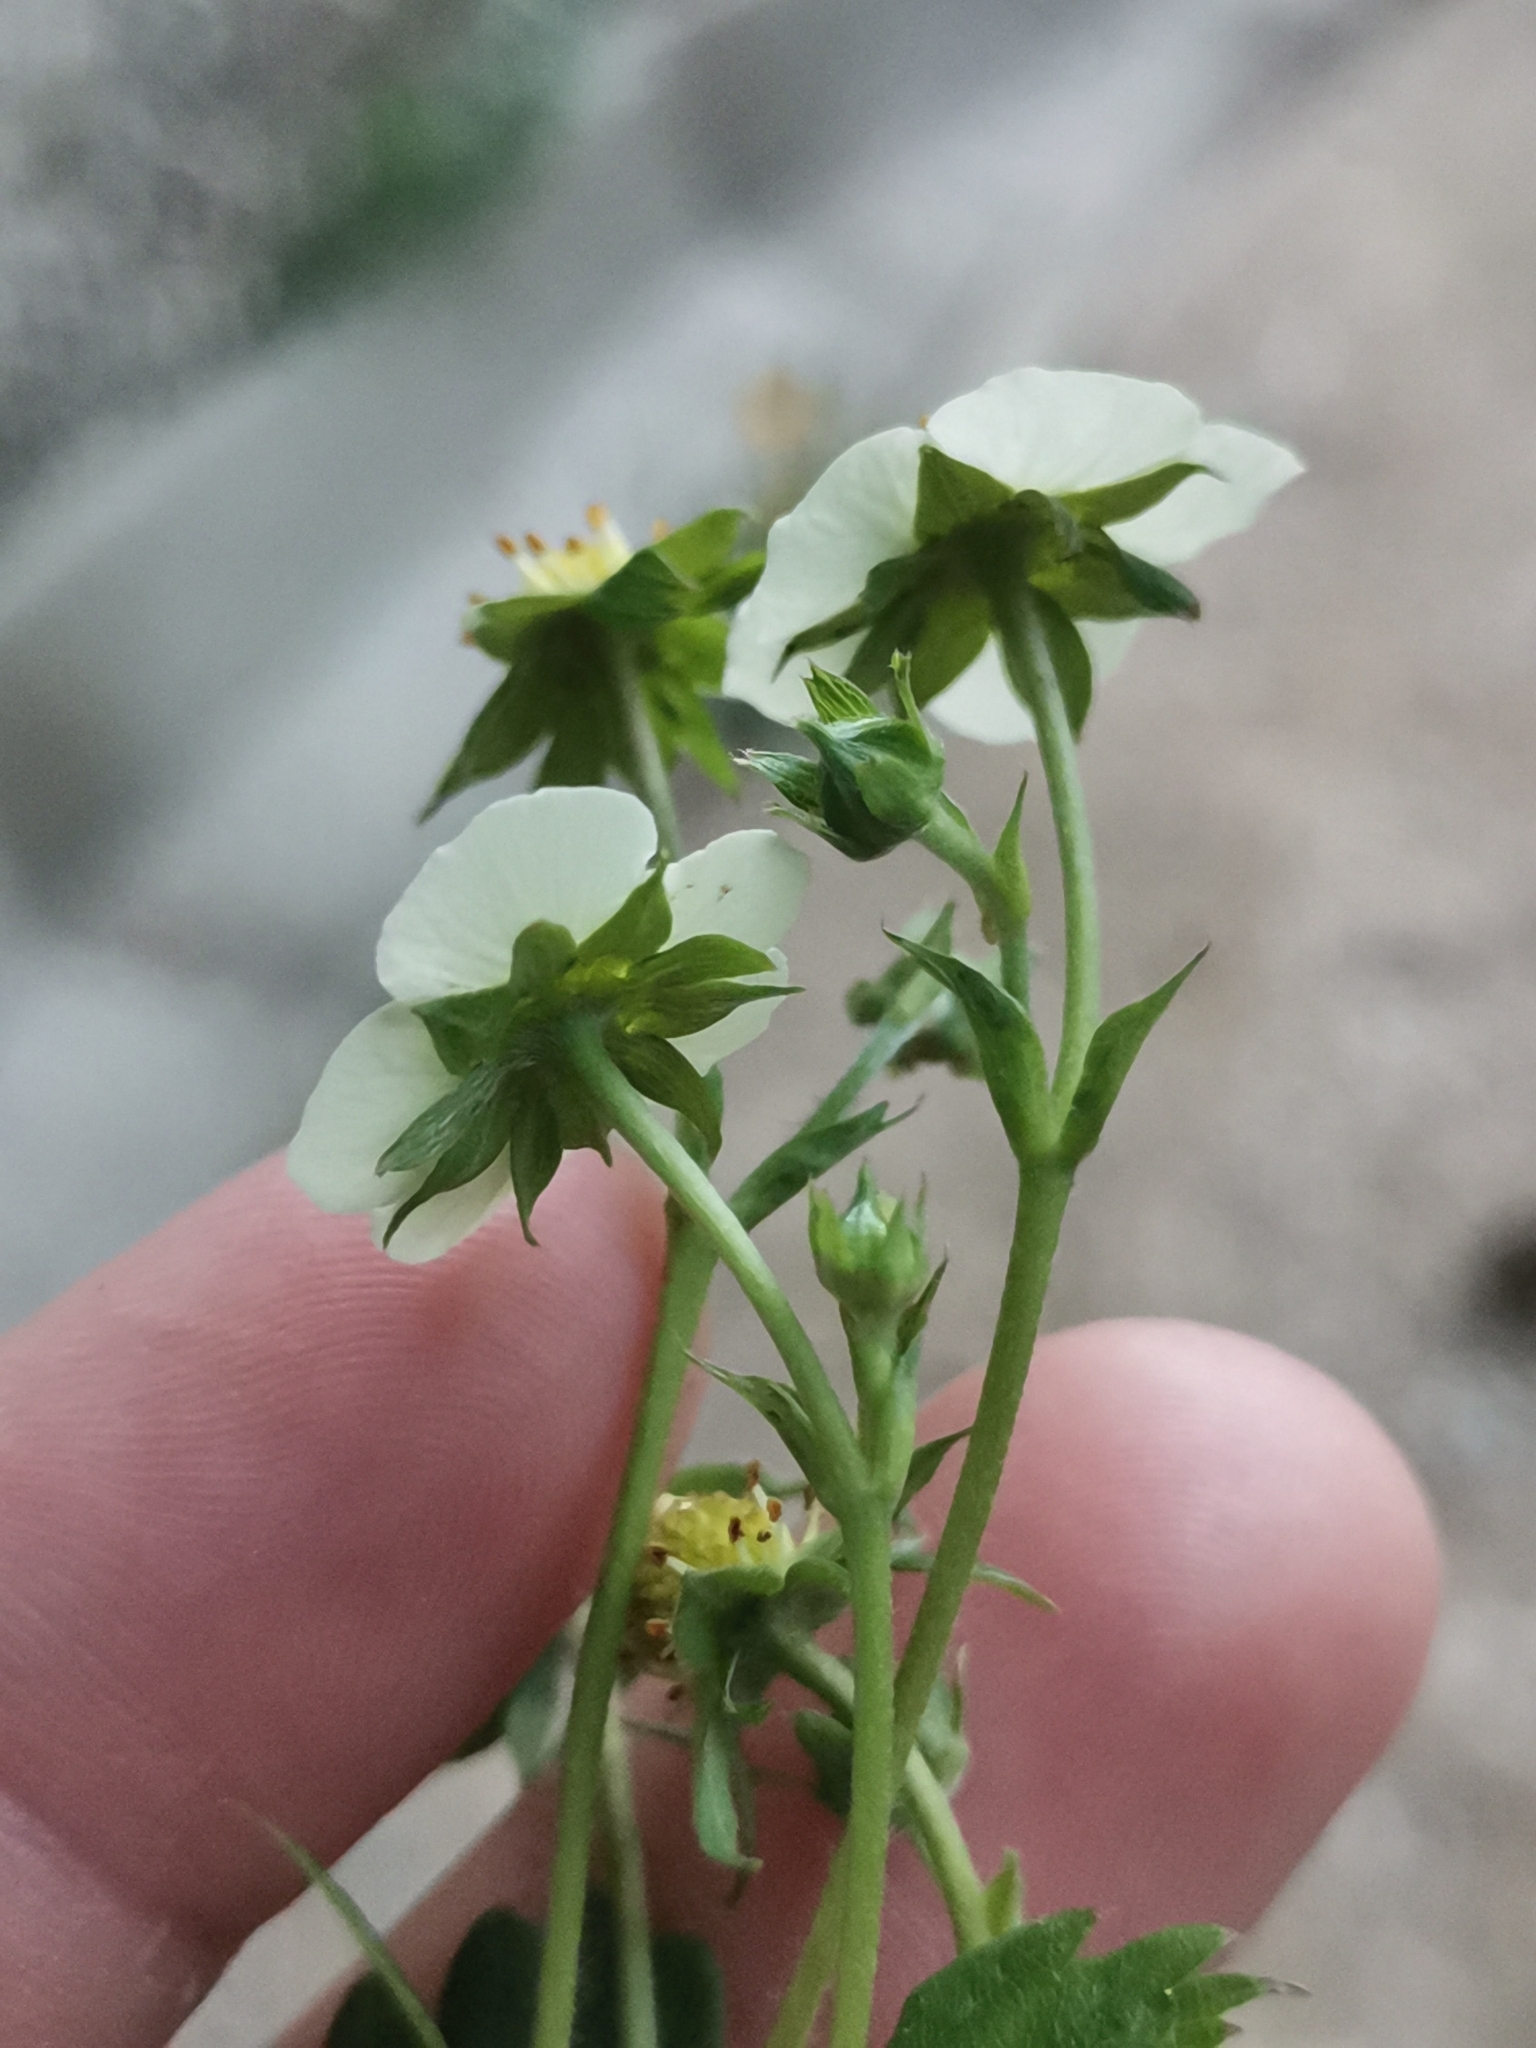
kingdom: Plantae
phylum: Tracheophyta
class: Magnoliopsida
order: Rosales
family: Rosaceae
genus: Fragaria
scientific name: Fragaria vesca
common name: Wild strawberry
